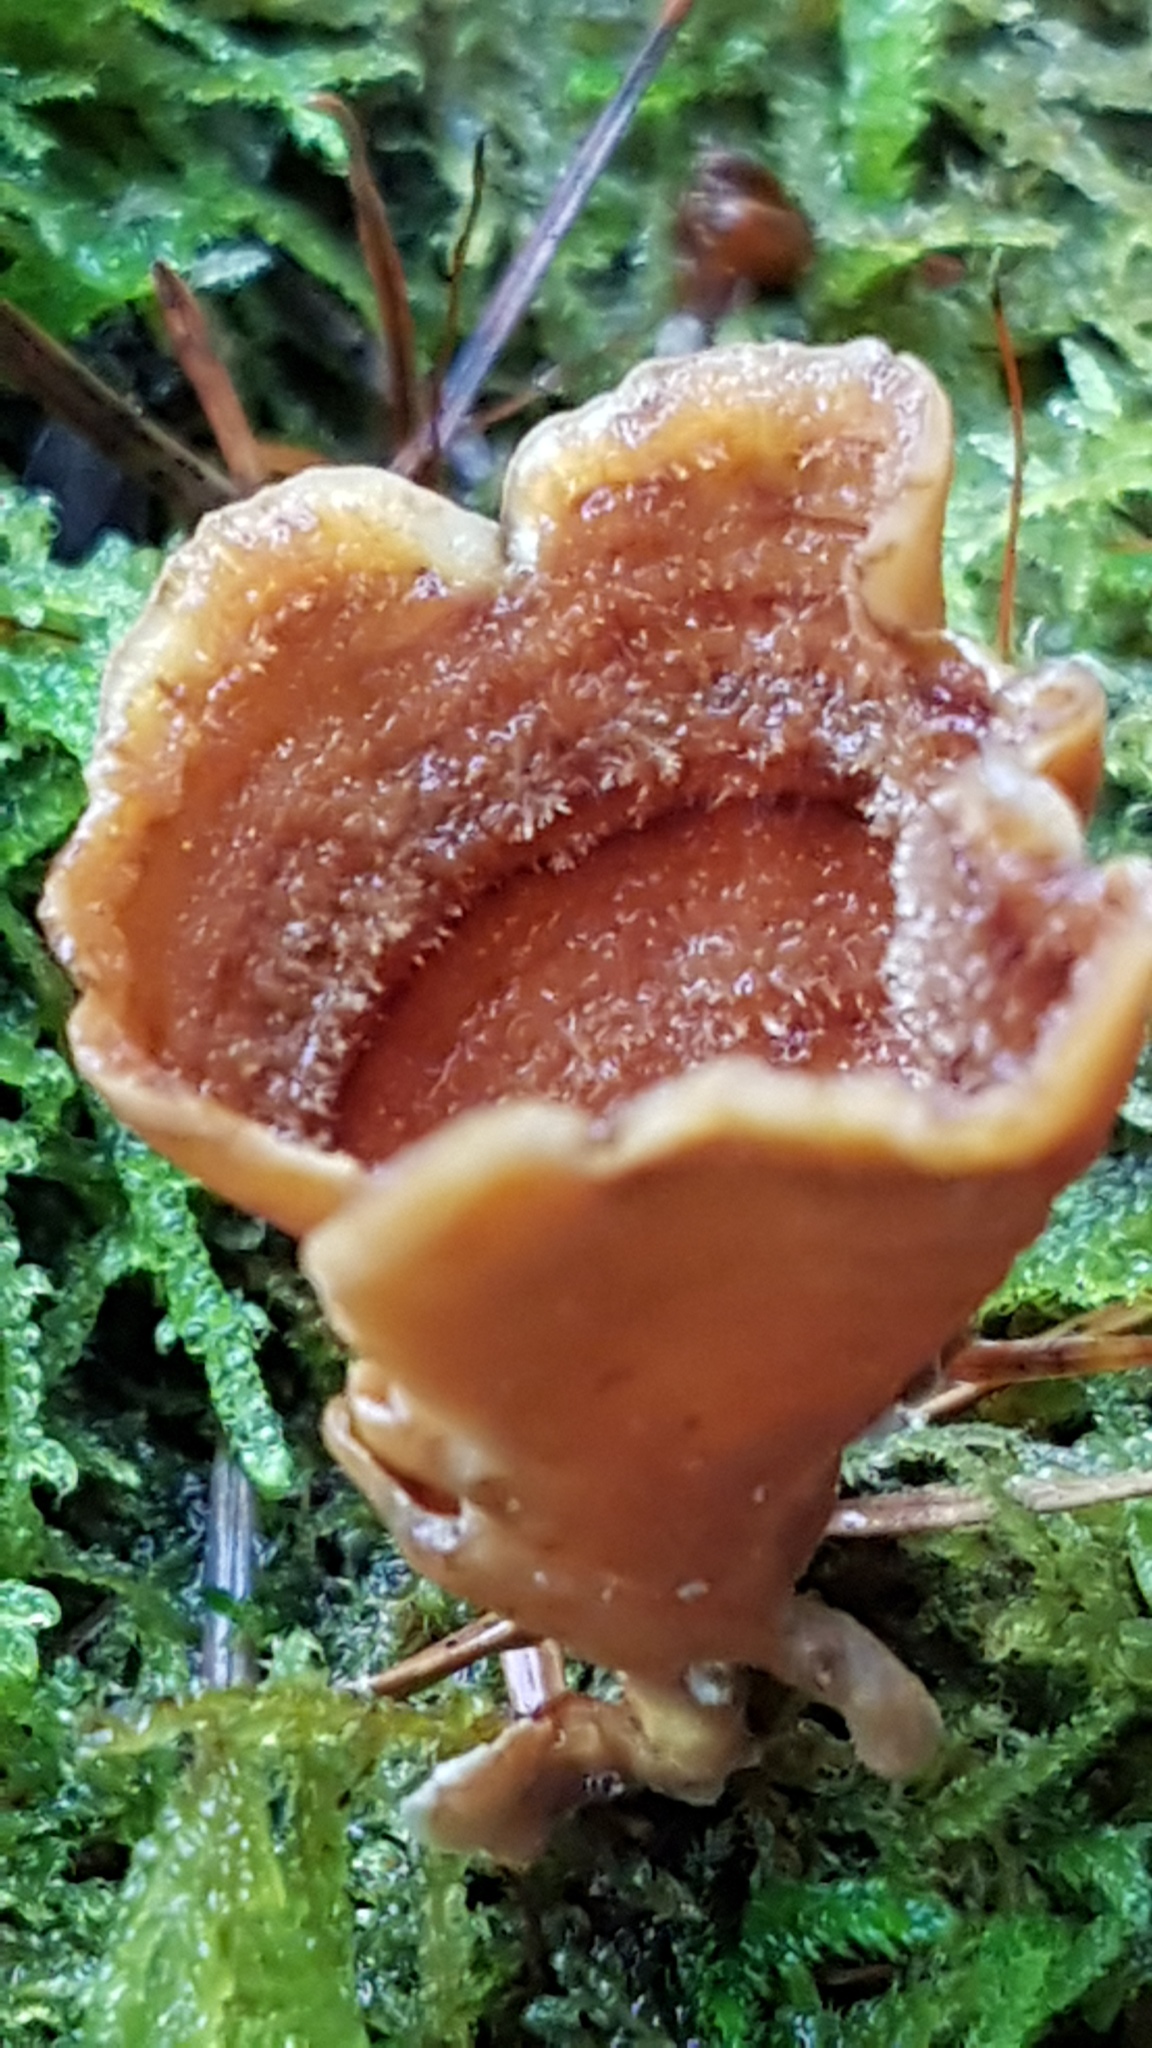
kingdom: Fungi
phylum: Basidiomycota
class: Agaricomycetes
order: Russulales
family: Stereaceae
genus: Stereum
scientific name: Stereum hirsutum
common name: Hairy curtain crust
